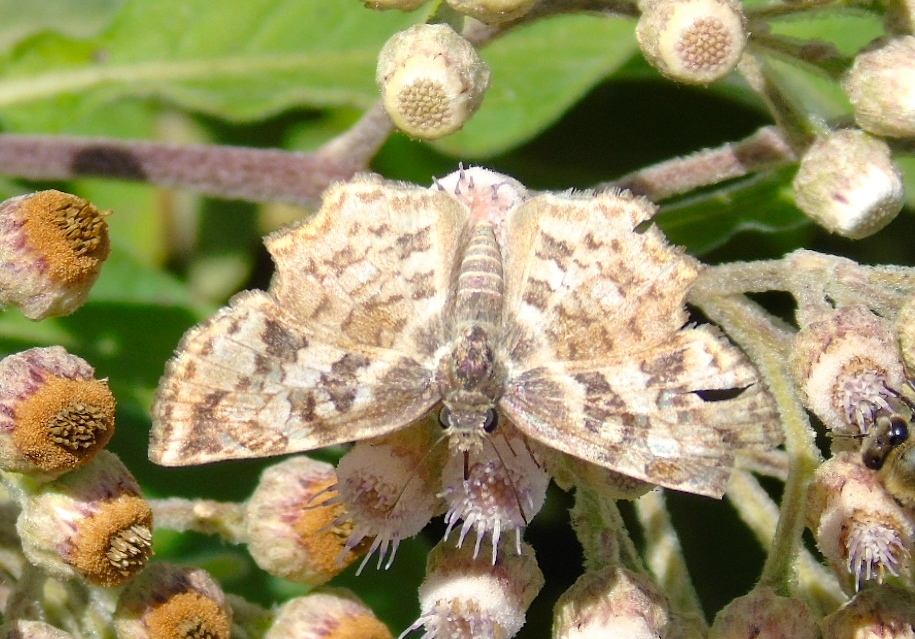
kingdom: Animalia
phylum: Arthropoda
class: Insecta
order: Lepidoptera
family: Hesperiidae
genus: Antigonus
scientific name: Antigonus erosus
